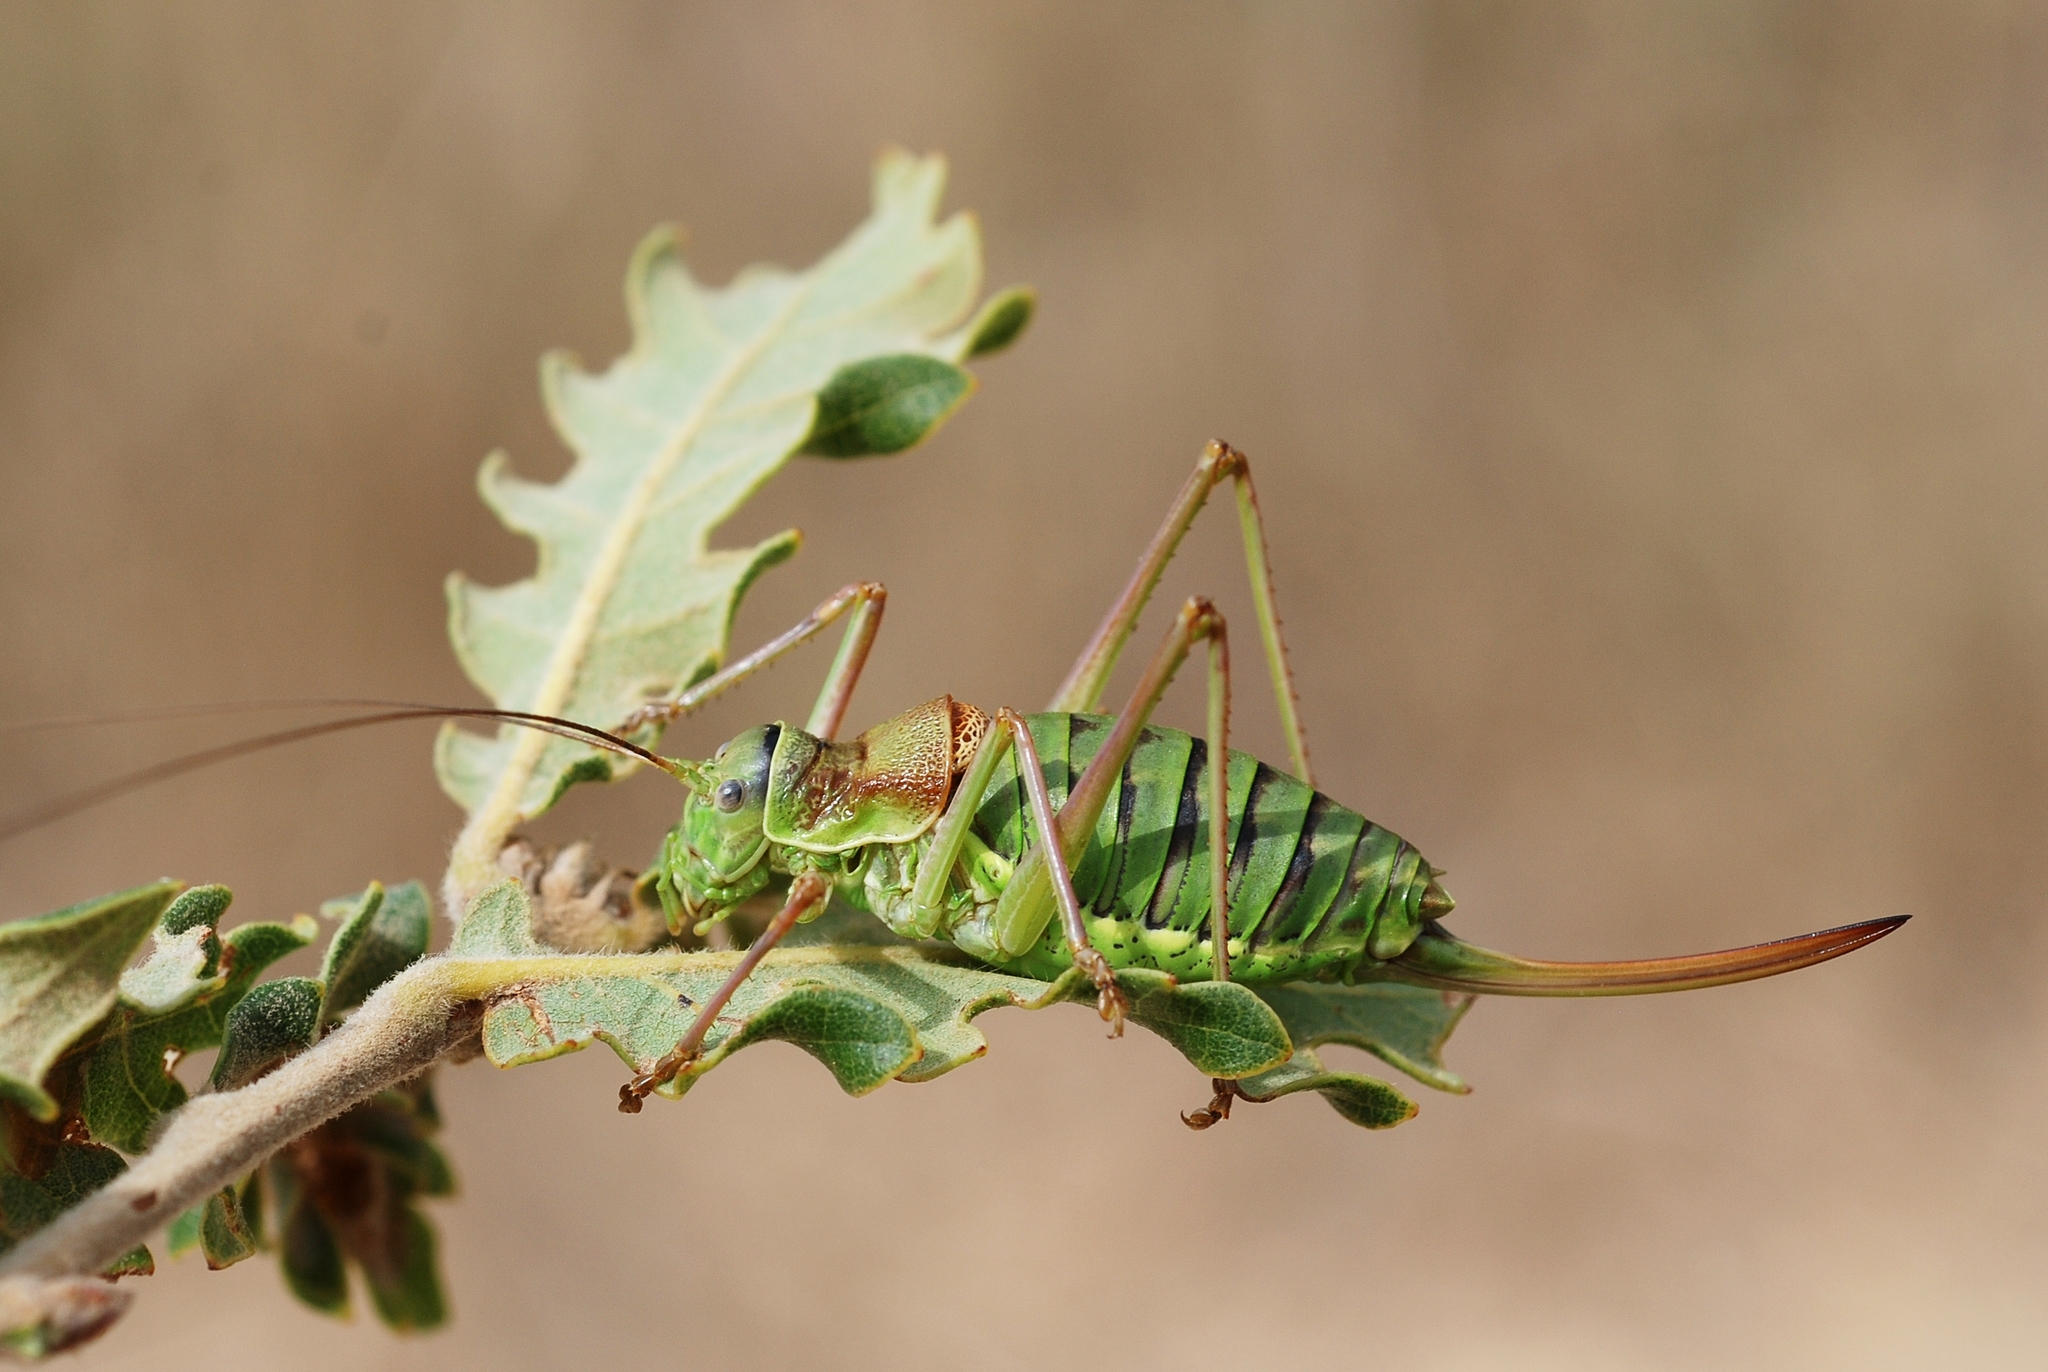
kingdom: Animalia
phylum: Arthropoda
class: Insecta
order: Orthoptera
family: Tettigoniidae
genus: Ephippiger
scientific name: Ephippiger diurnus
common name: Western saddle bush-cricket
